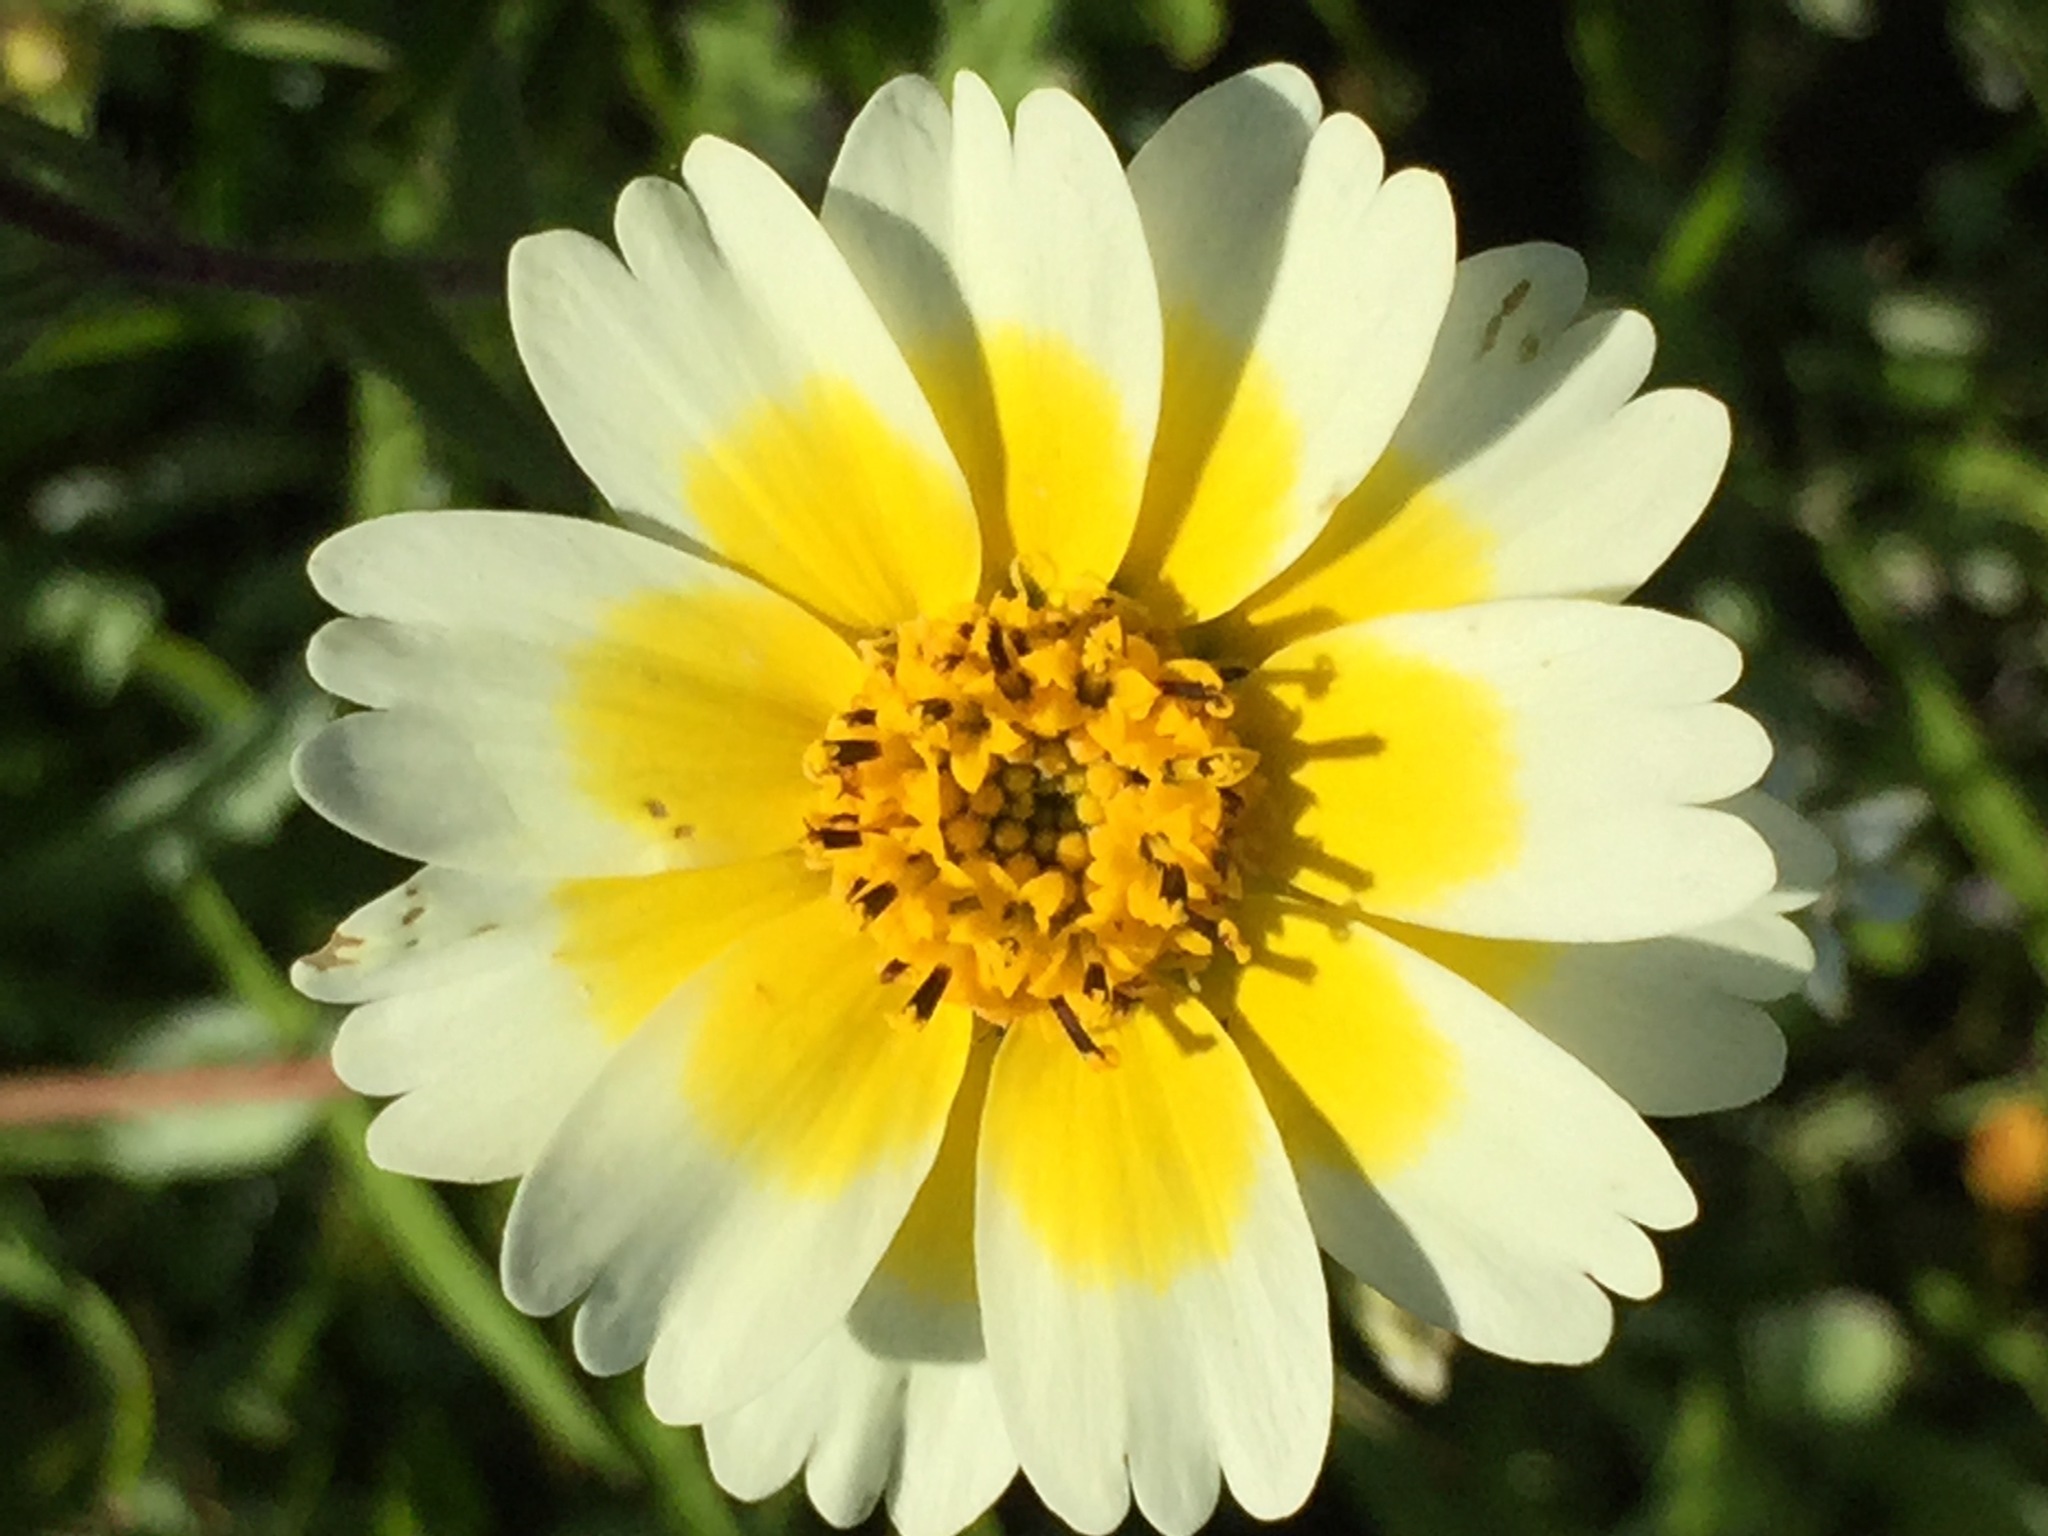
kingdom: Plantae
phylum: Tracheophyta
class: Magnoliopsida
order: Asterales
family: Asteraceae
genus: Layia
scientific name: Layia gaillardioides
